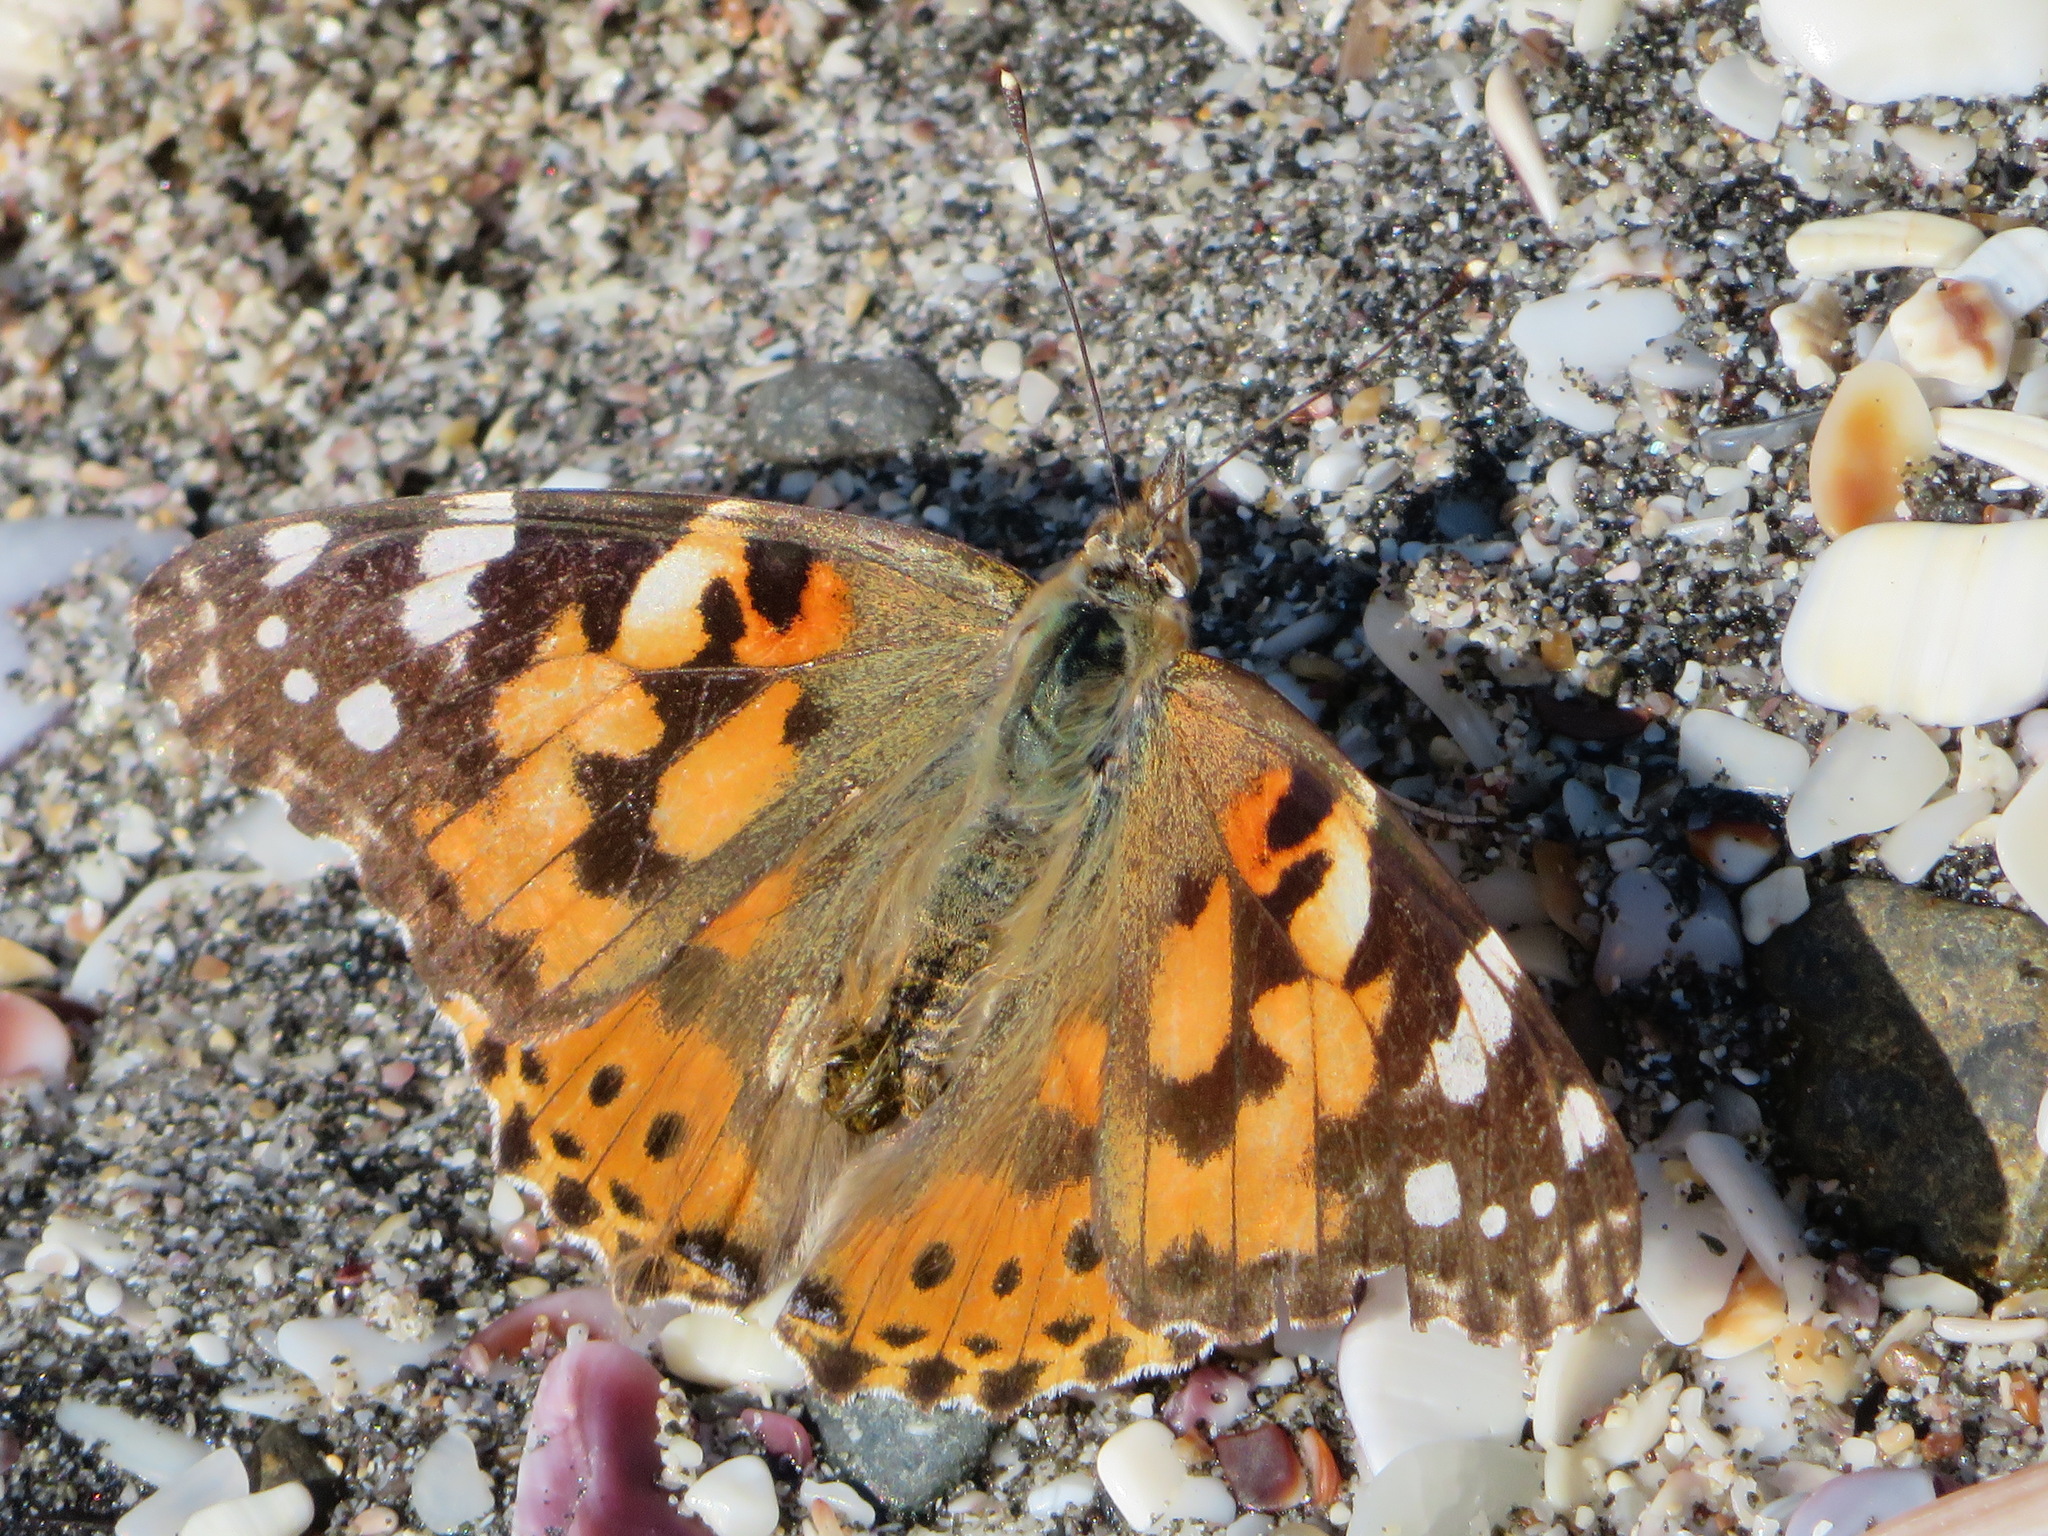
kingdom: Animalia
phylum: Arthropoda
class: Insecta
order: Lepidoptera
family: Nymphalidae
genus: Vanessa
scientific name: Vanessa cardui
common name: Painted lady
